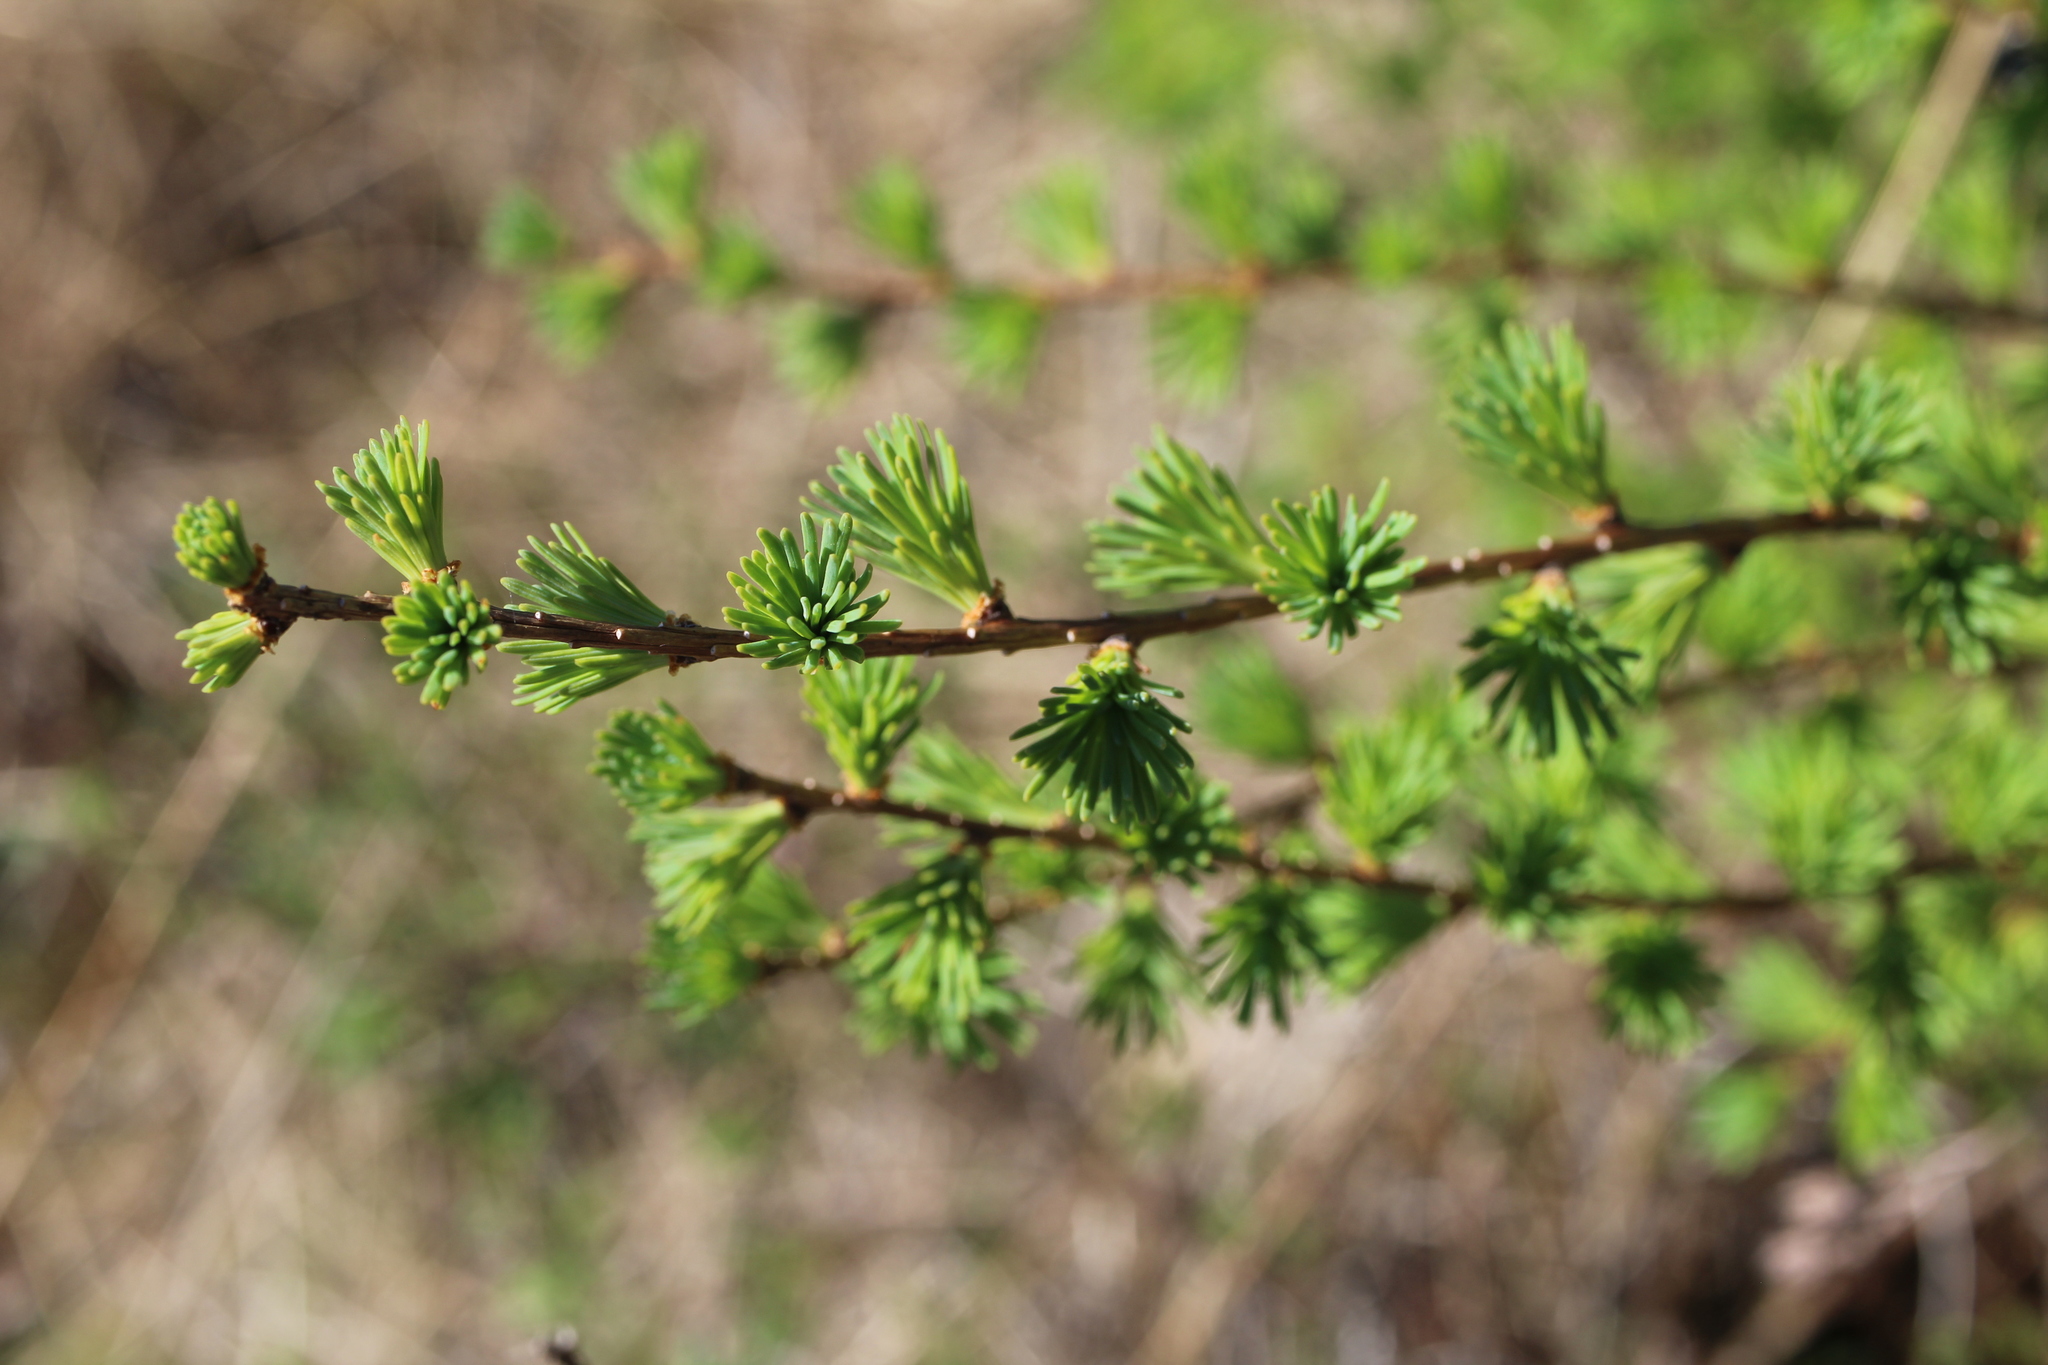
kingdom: Plantae
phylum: Tracheophyta
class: Pinopsida
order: Pinales
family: Pinaceae
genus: Larix
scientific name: Larix laricina
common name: American larch
